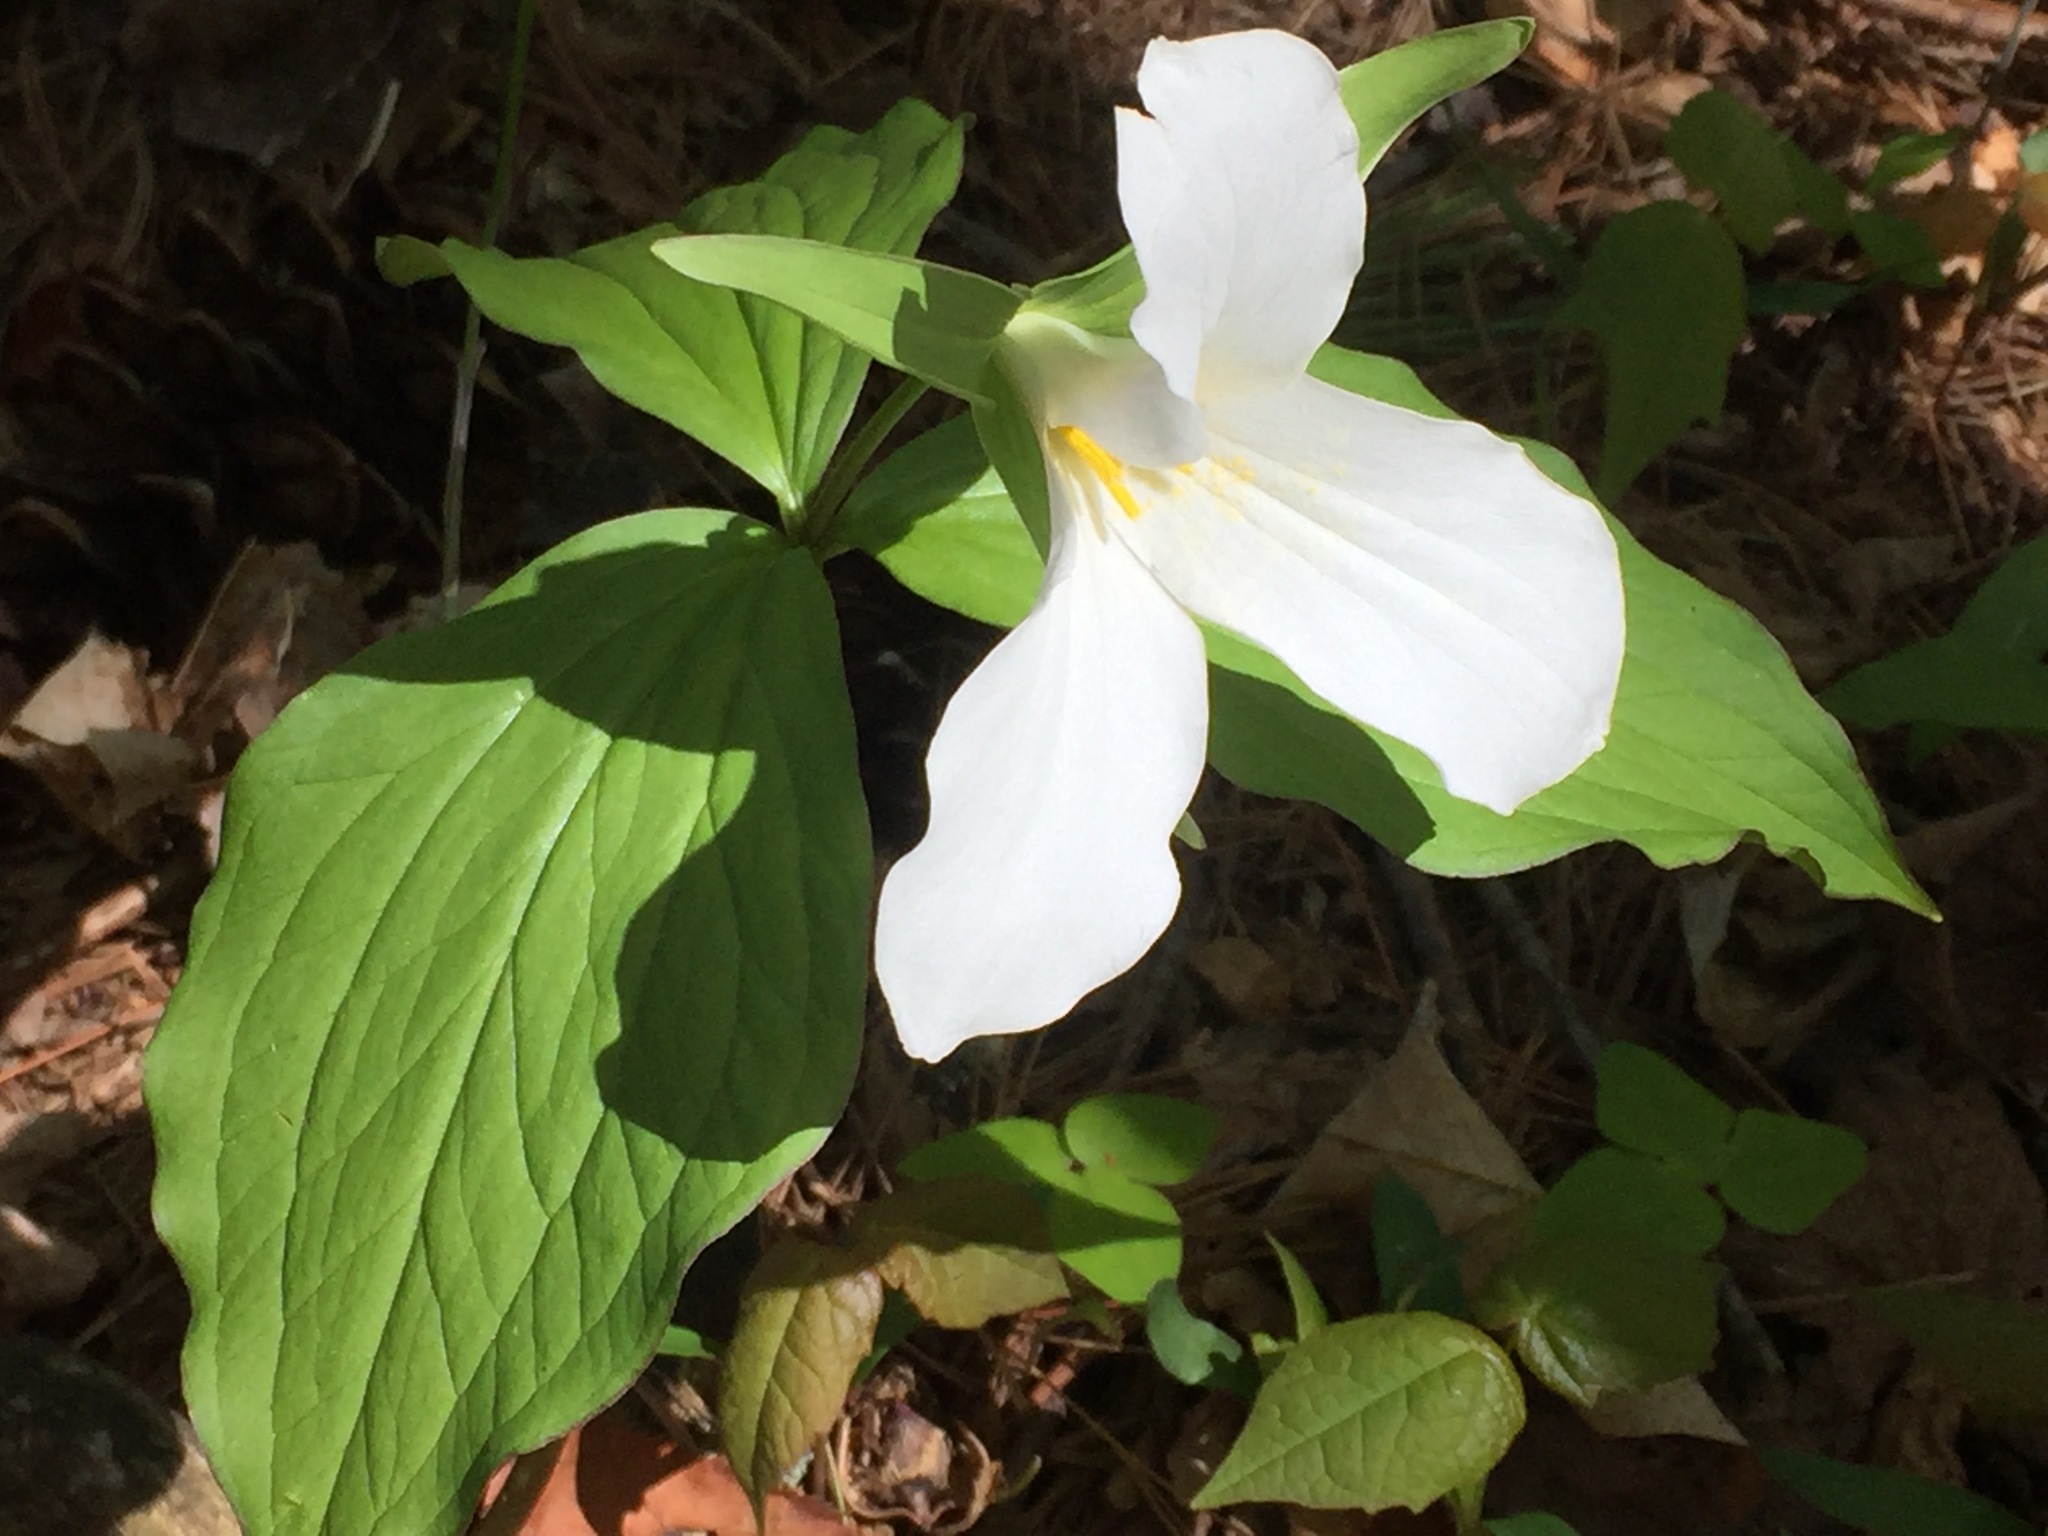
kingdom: Plantae
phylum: Tracheophyta
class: Liliopsida
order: Liliales
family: Melanthiaceae
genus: Trillium
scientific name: Trillium grandiflorum
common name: Great white trillium
